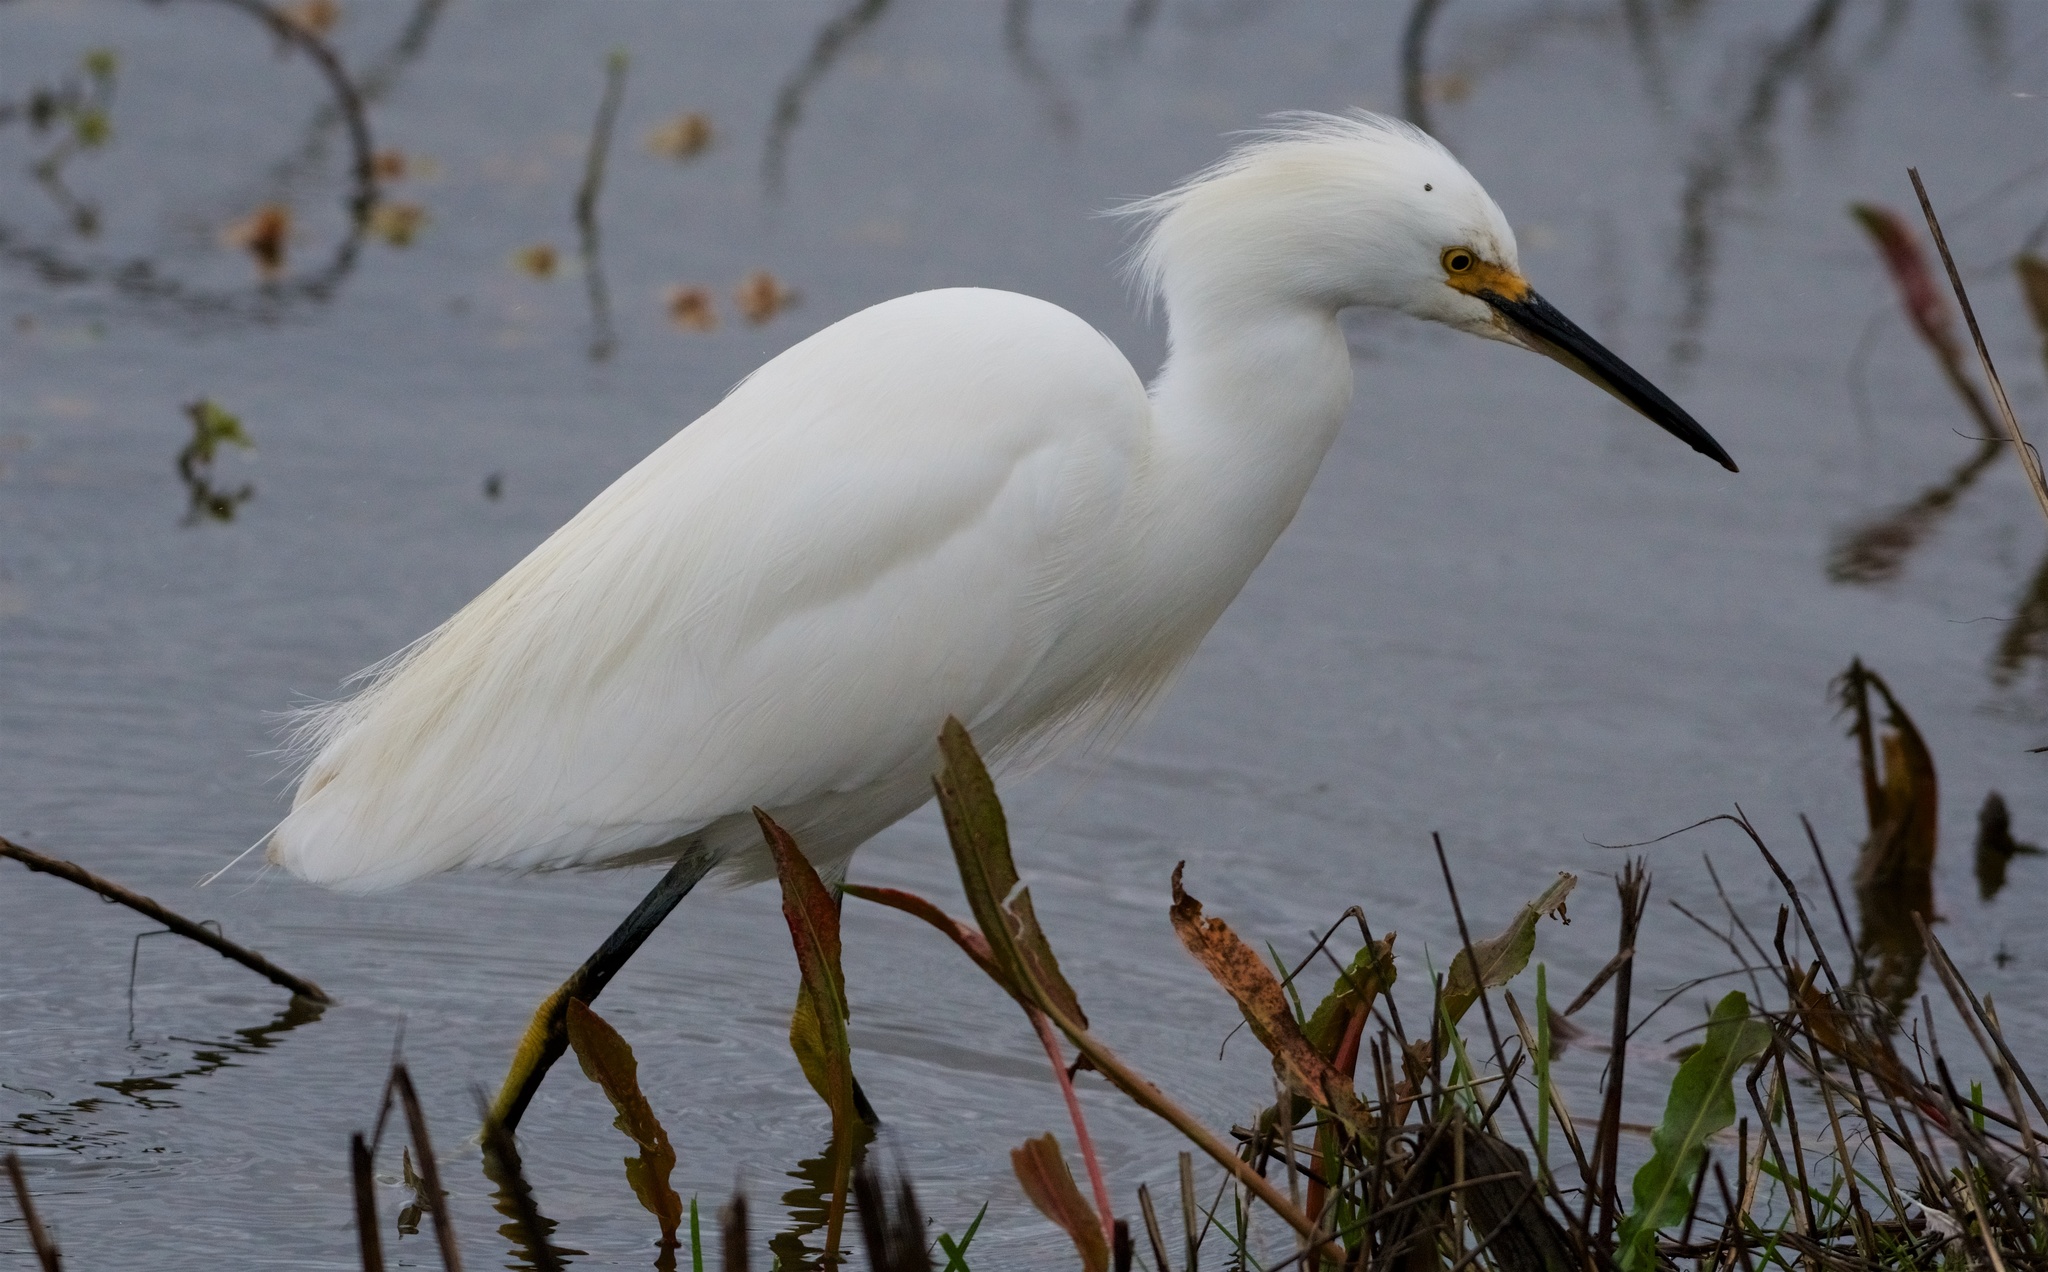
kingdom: Animalia
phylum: Chordata
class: Aves
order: Pelecaniformes
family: Ardeidae
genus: Egretta
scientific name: Egretta thula
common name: Snowy egret
